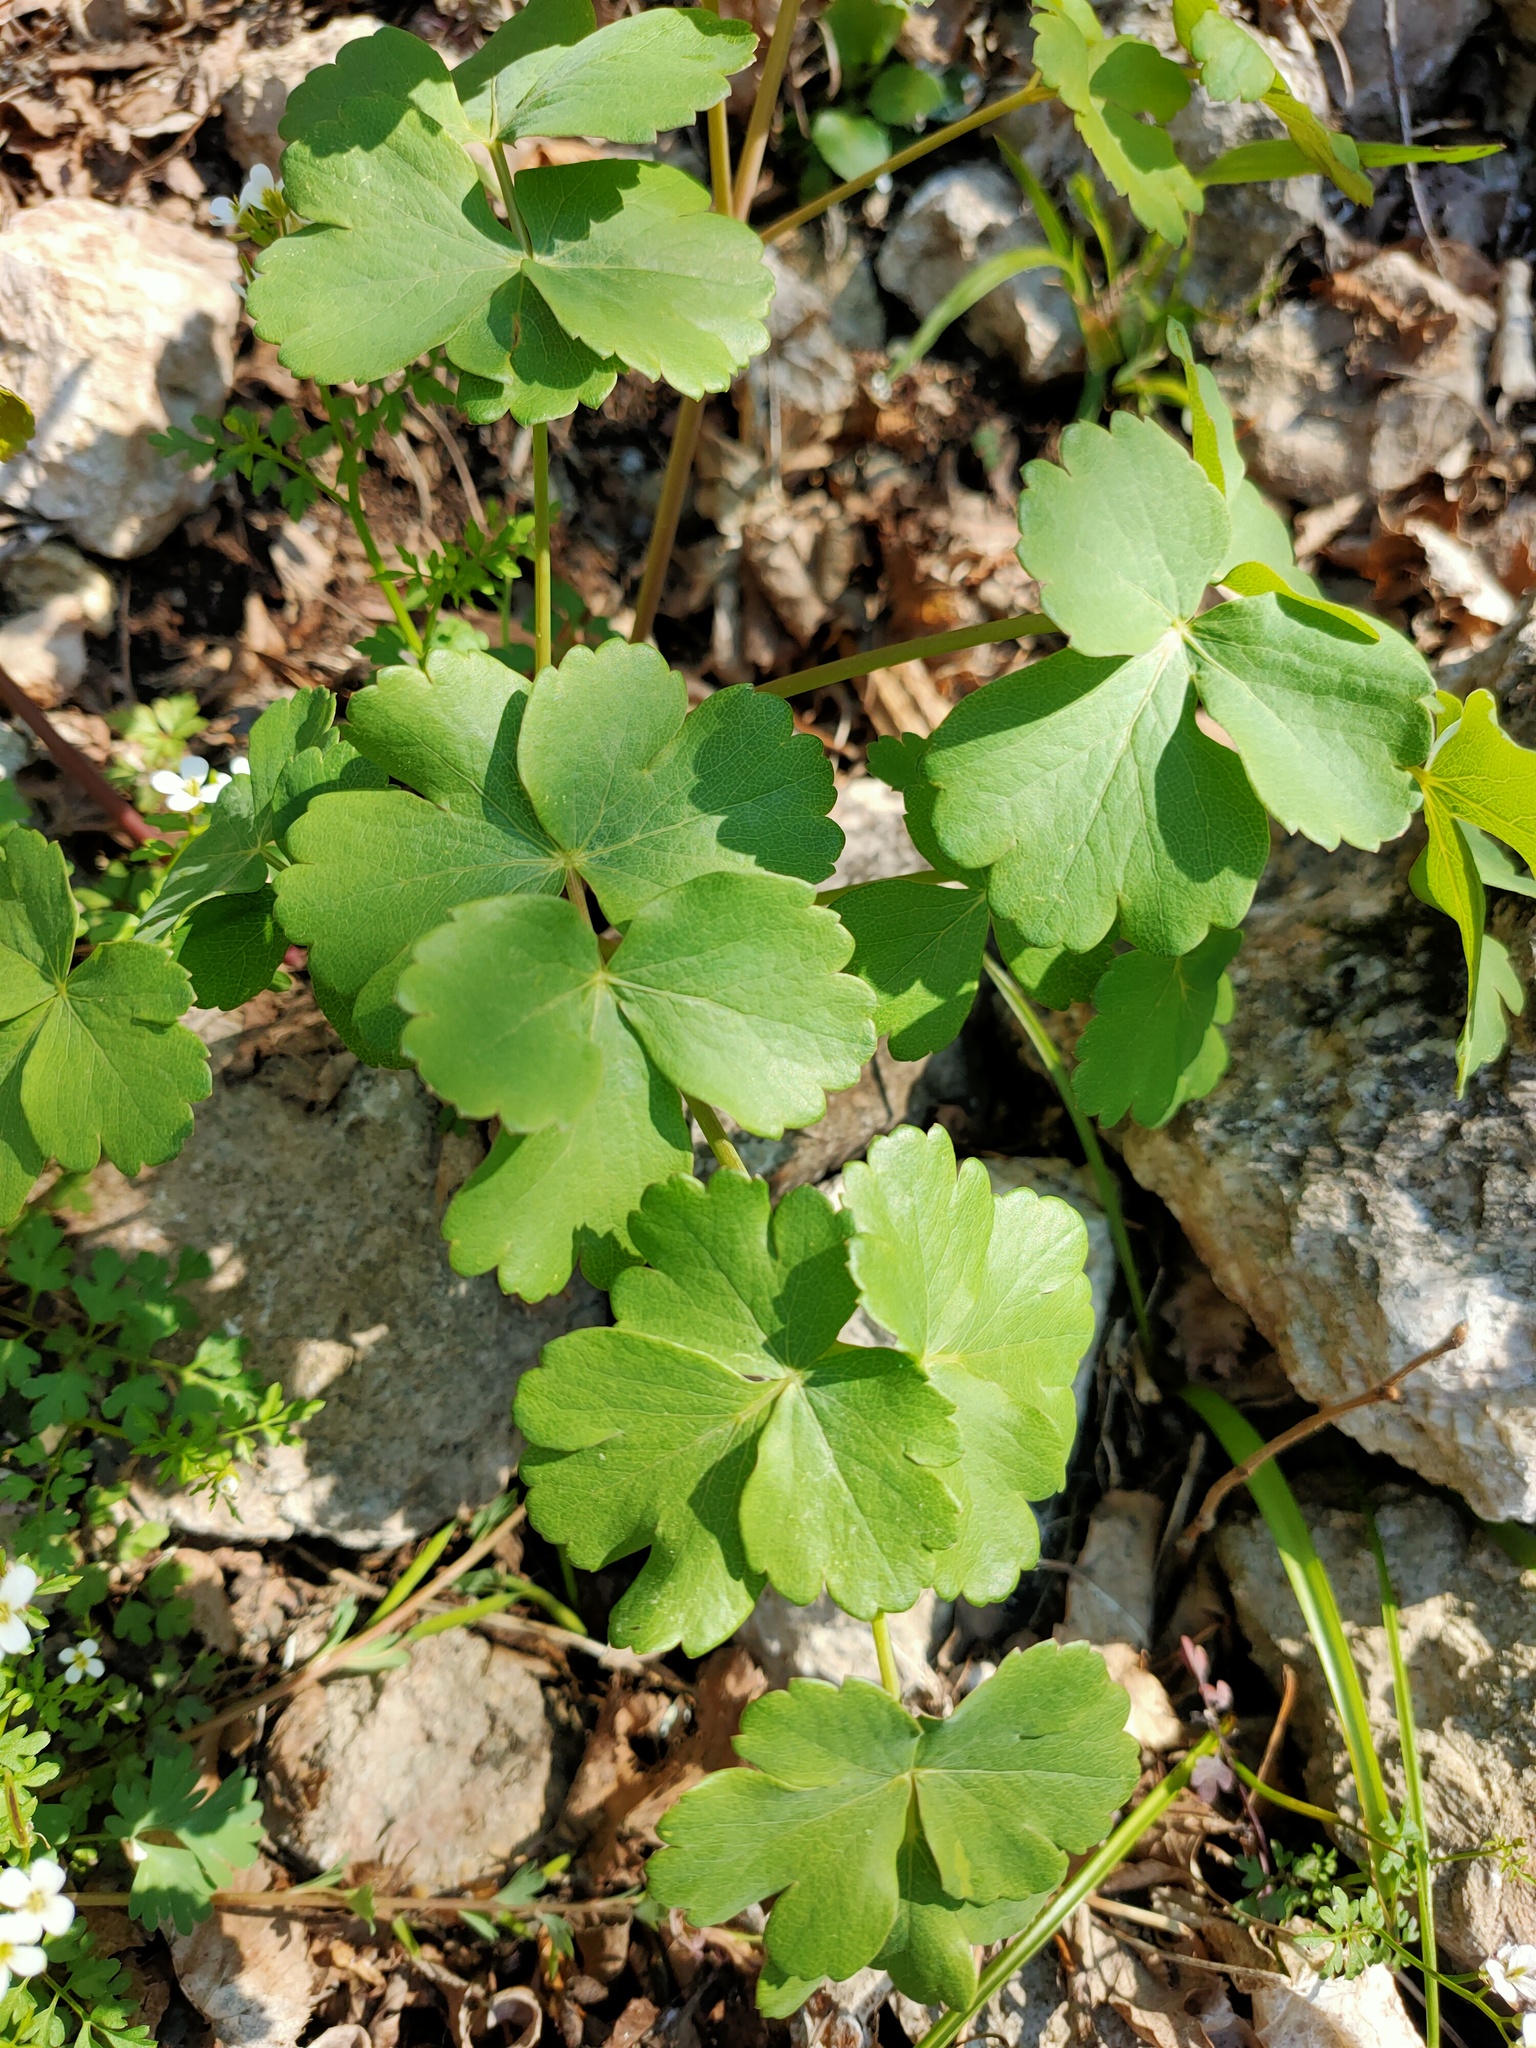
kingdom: Plantae
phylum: Tracheophyta
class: Magnoliopsida
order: Apiales
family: Apiaceae
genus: Laser
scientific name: Laser trilobum
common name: Laser
